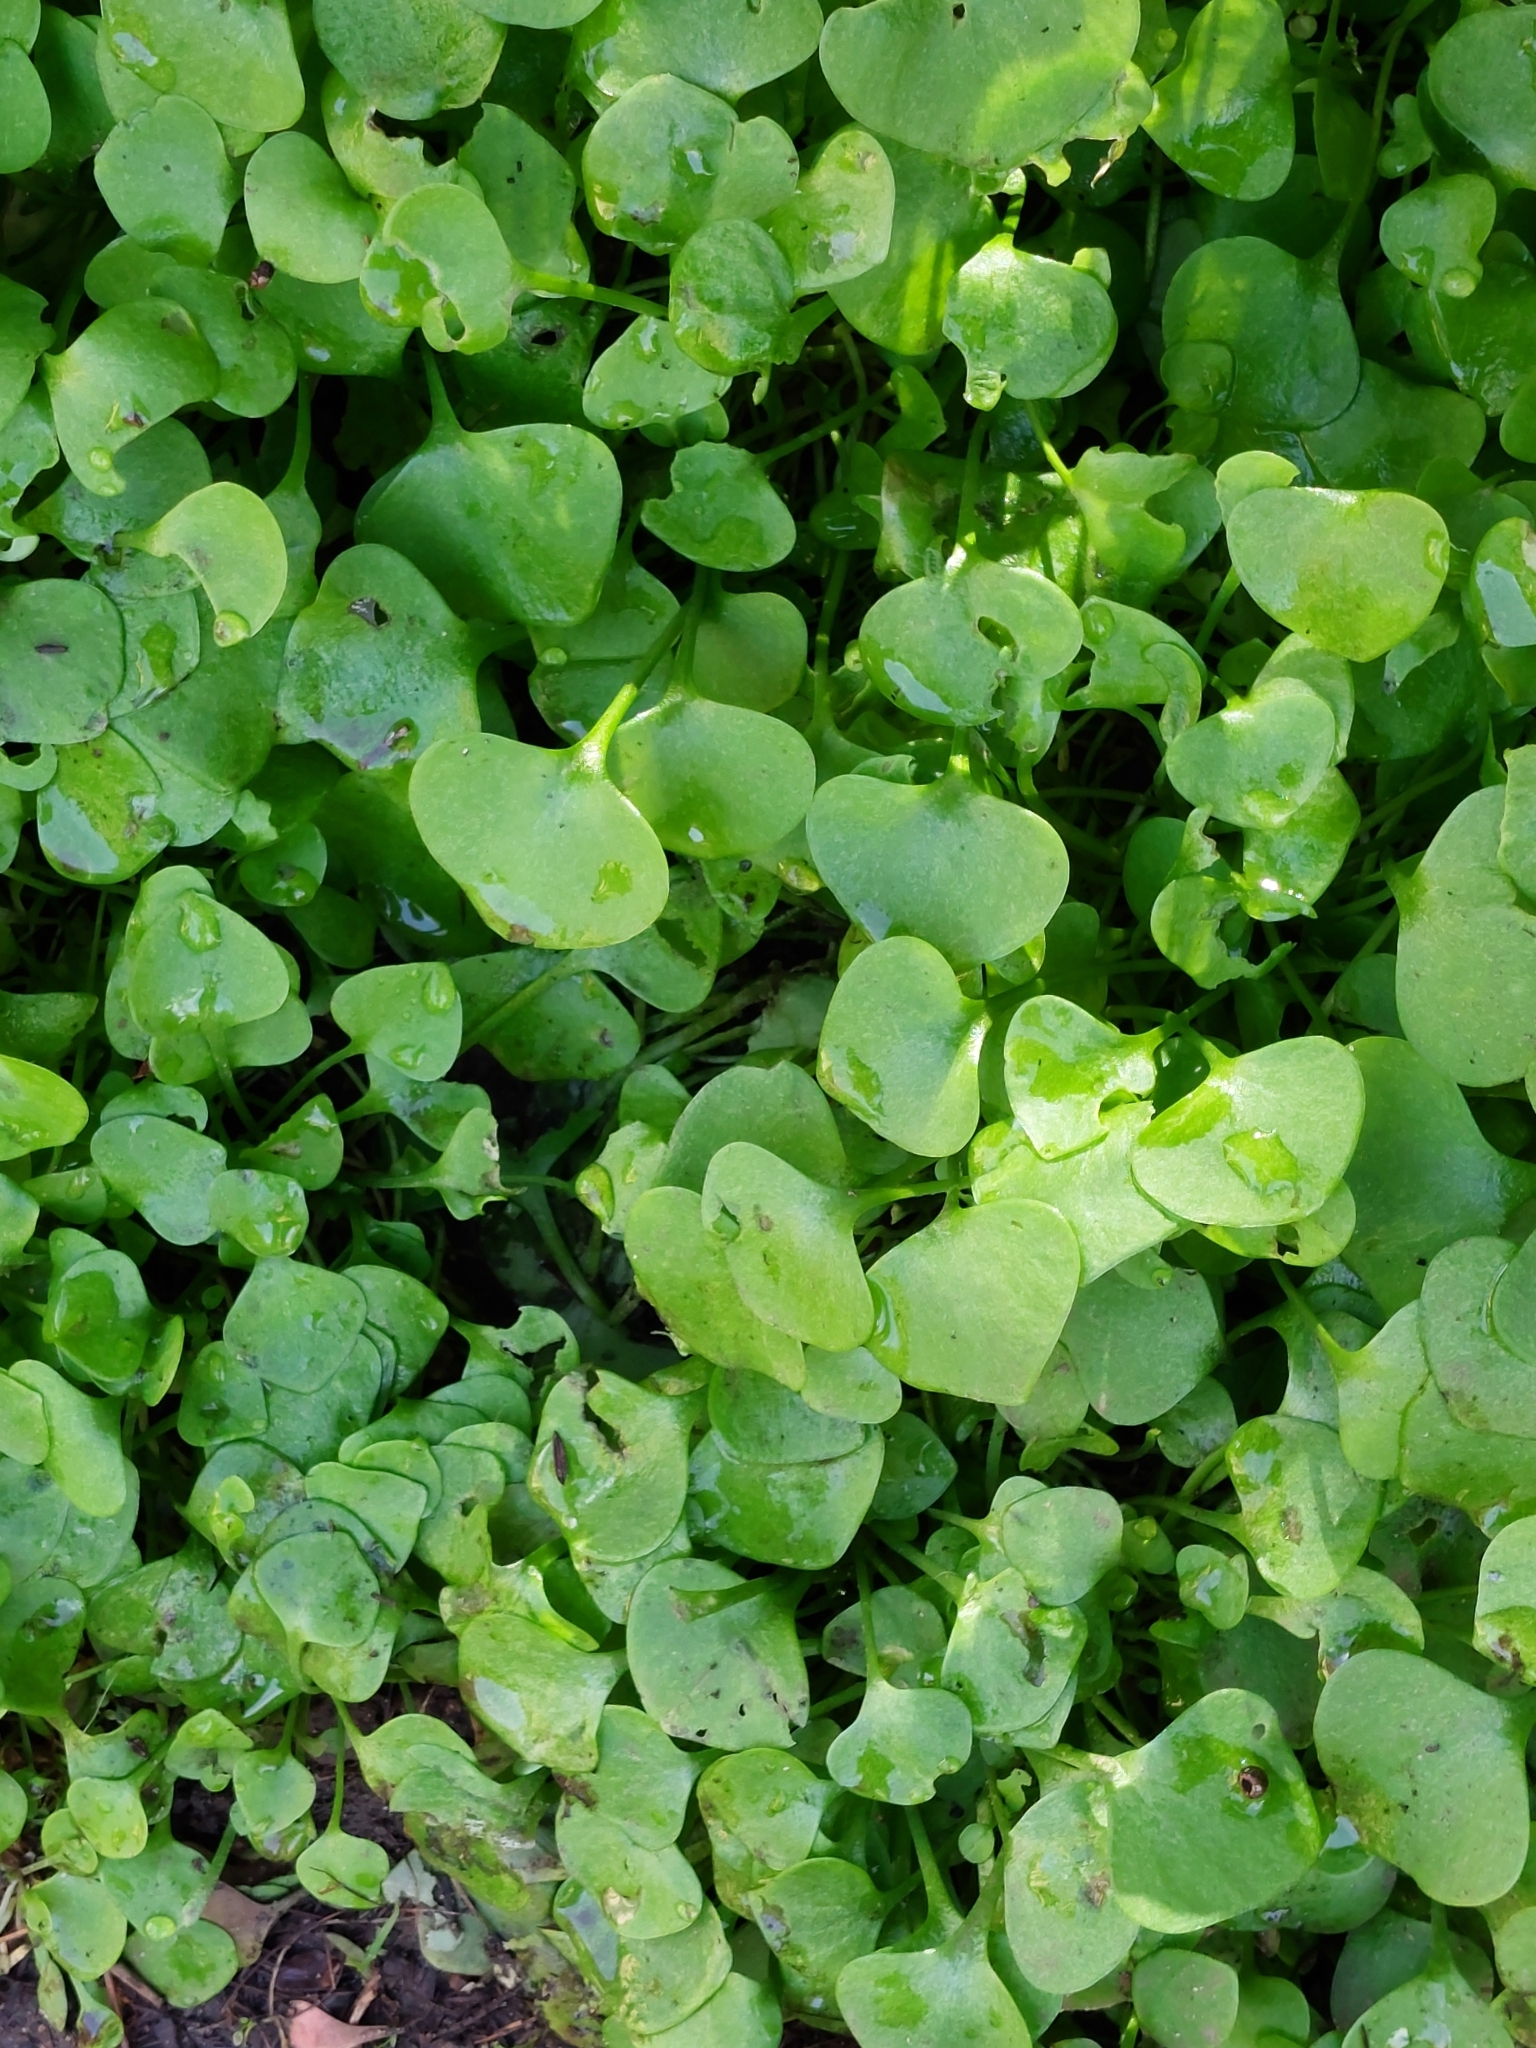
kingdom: Plantae
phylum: Tracheophyta
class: Magnoliopsida
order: Caryophyllales
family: Montiaceae
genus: Claytonia
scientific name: Claytonia perfoliata
